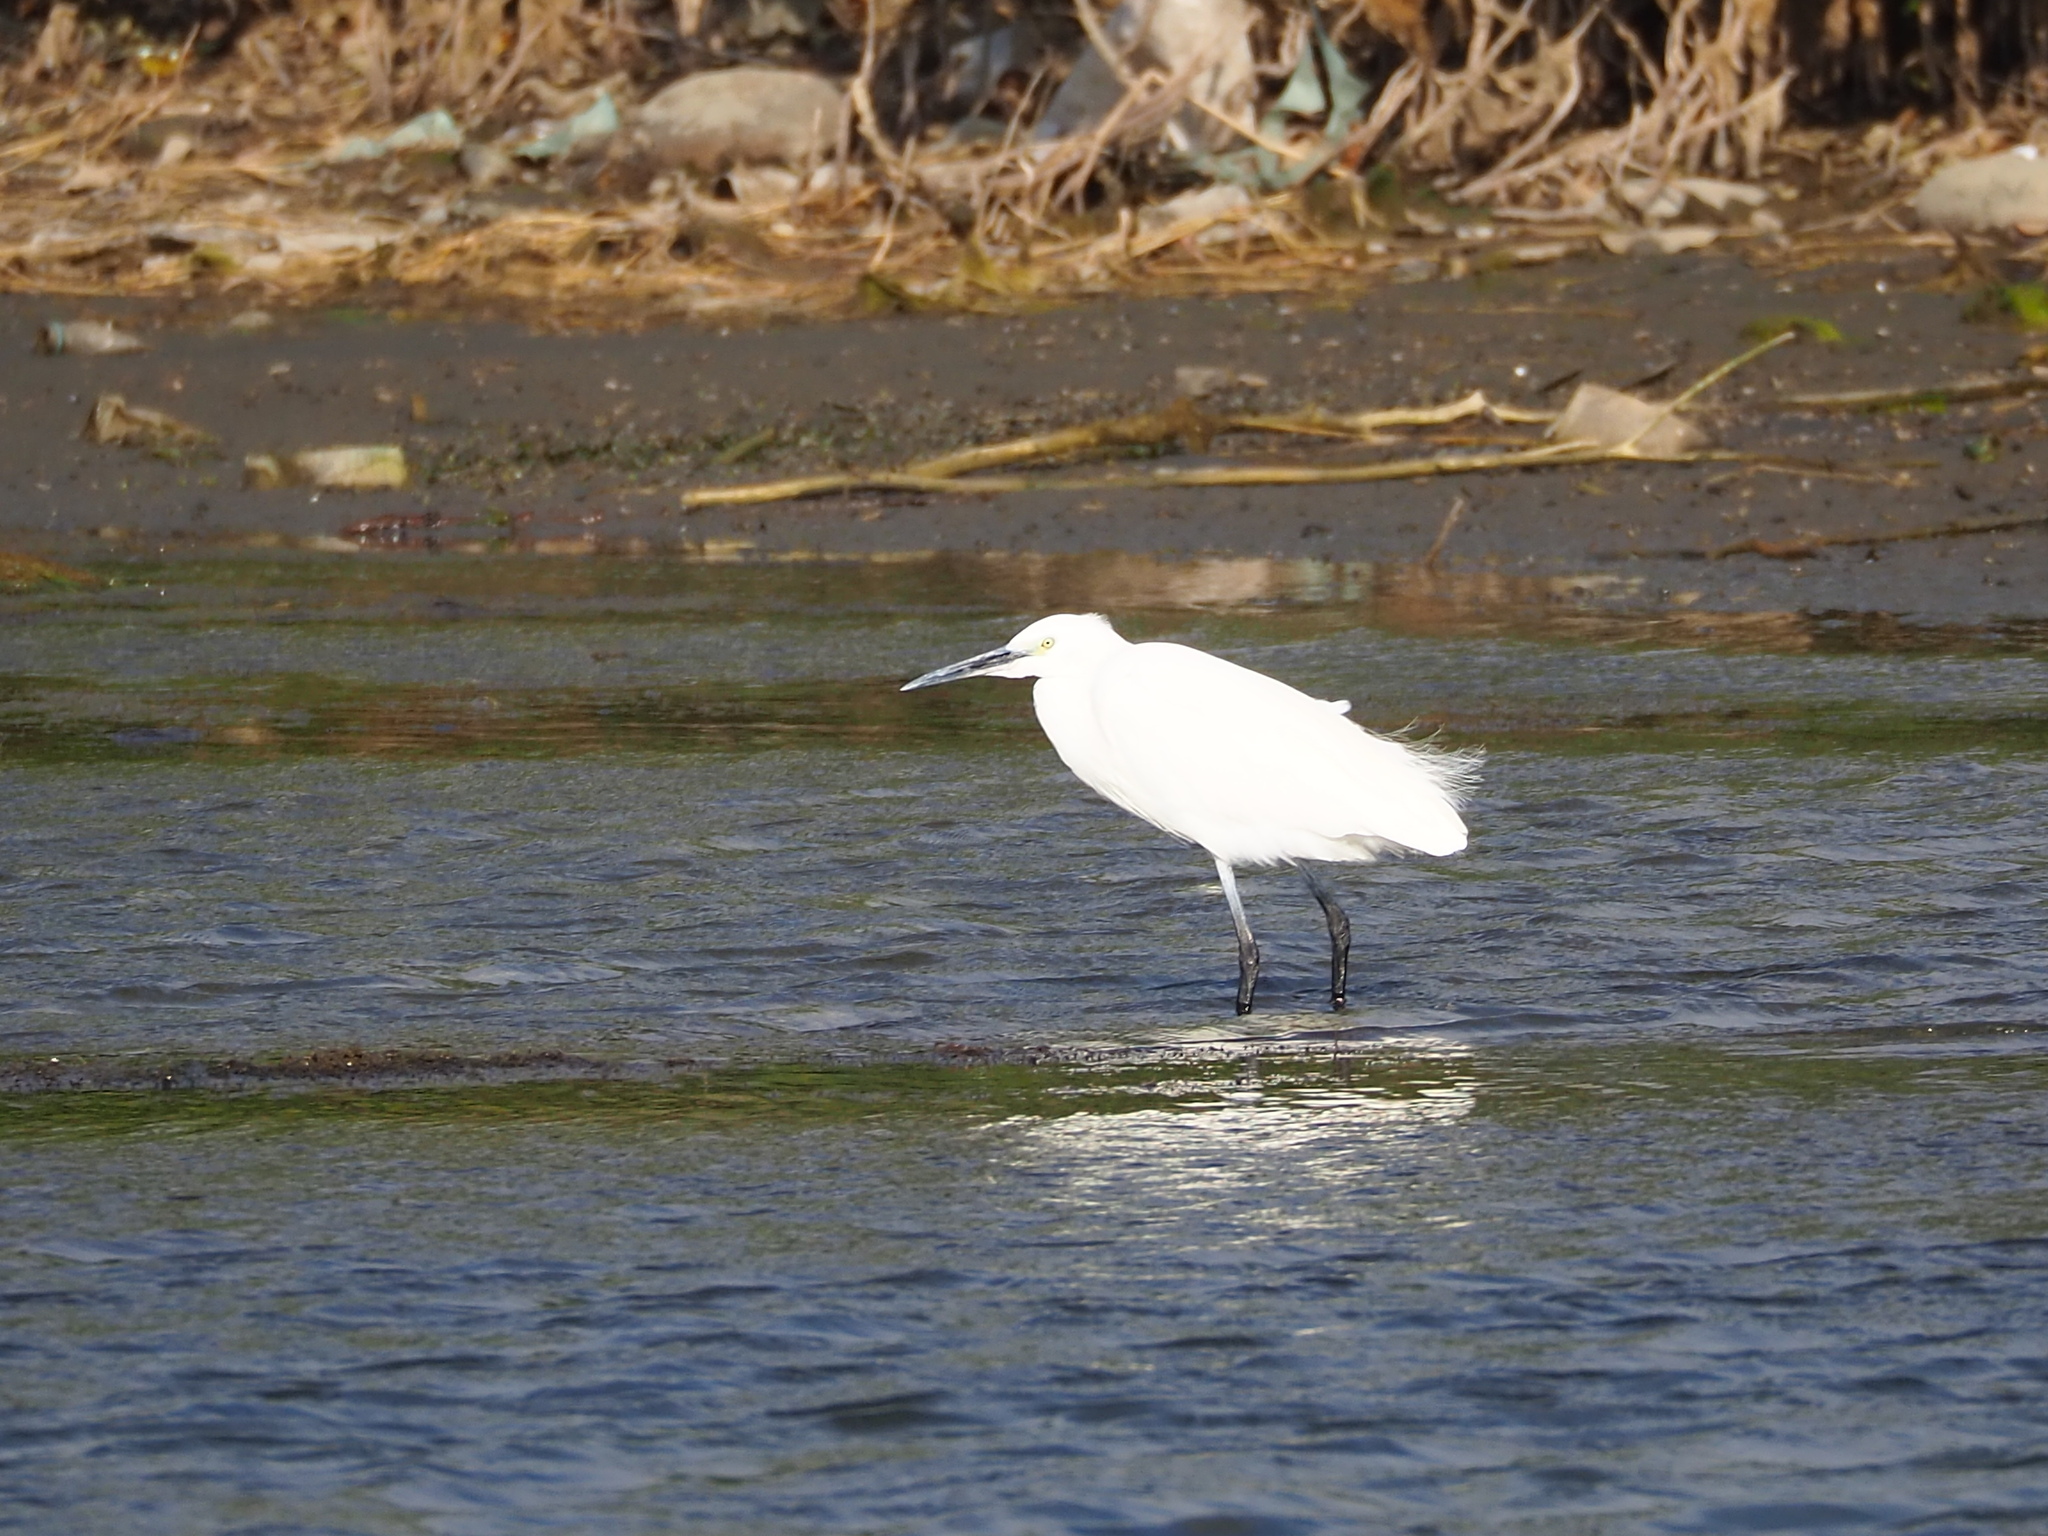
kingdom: Animalia
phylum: Chordata
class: Aves
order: Pelecaniformes
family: Ardeidae
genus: Egretta
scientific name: Egretta garzetta
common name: Little egret
